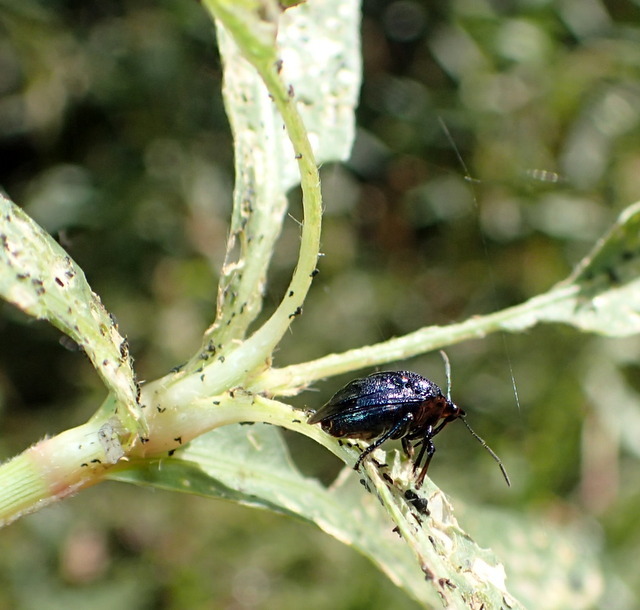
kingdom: Animalia
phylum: Arthropoda
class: Insecta
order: Hemiptera
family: Pentatomidae
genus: Stiretrus
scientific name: Stiretrus anchorago
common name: Anchor stink bug
